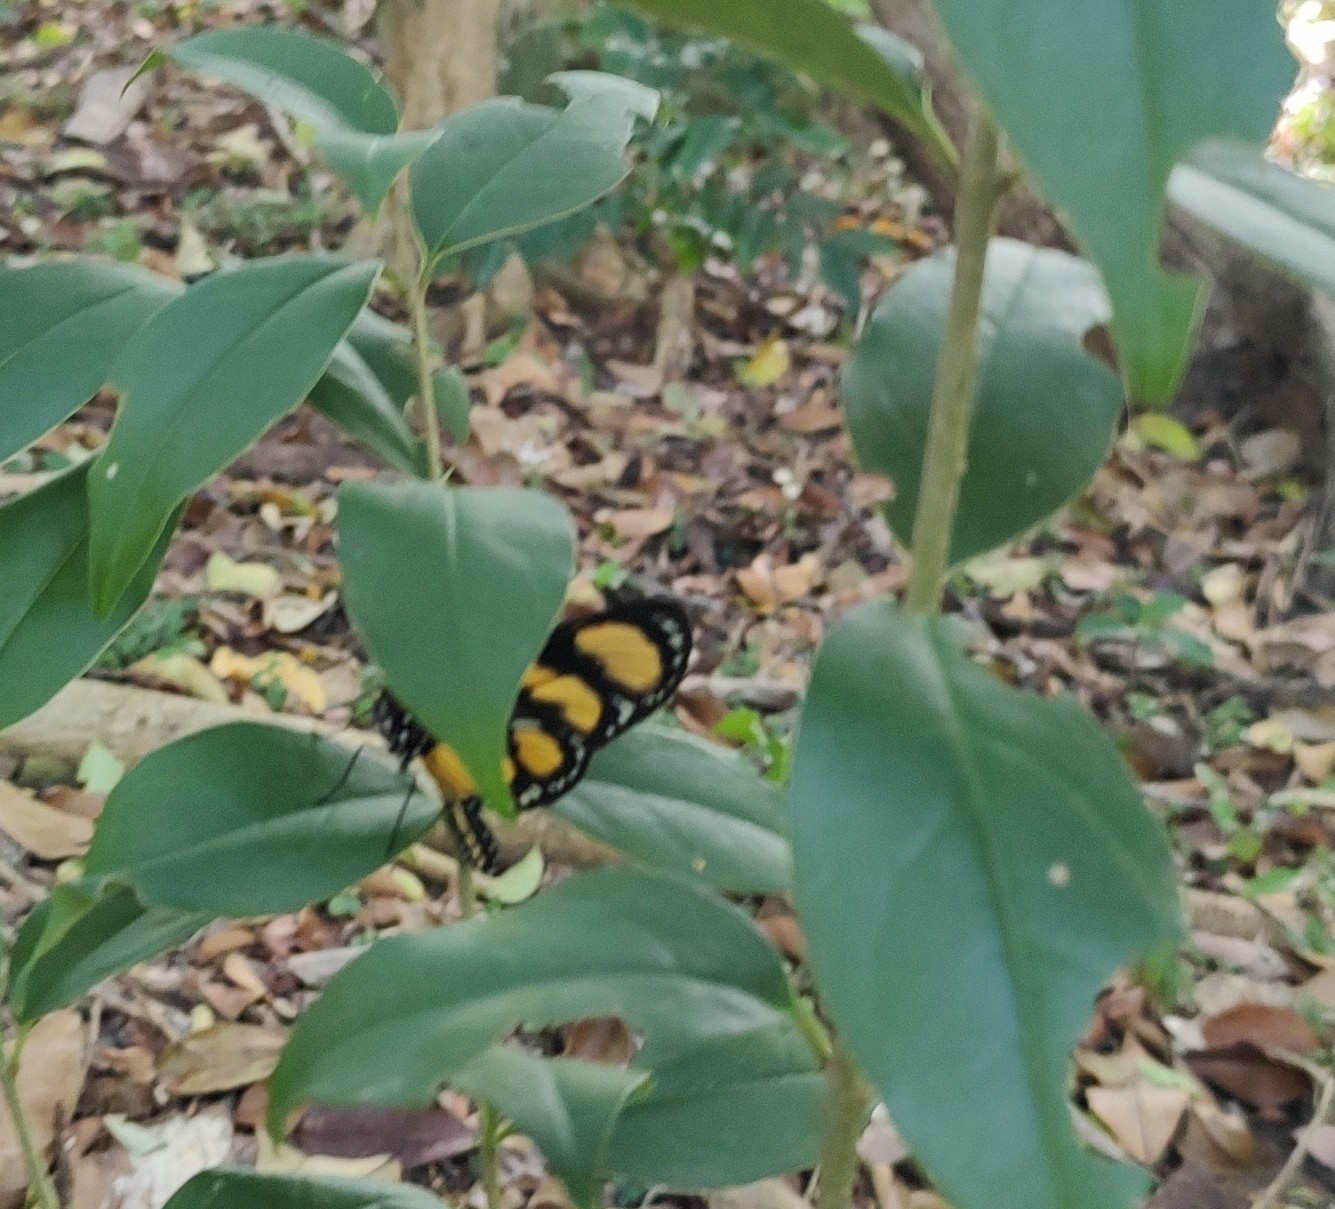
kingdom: Animalia
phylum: Arthropoda
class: Insecta
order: Lepidoptera
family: Nymphalidae
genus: Methona
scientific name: Methona themisto
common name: Themisto amberwing
